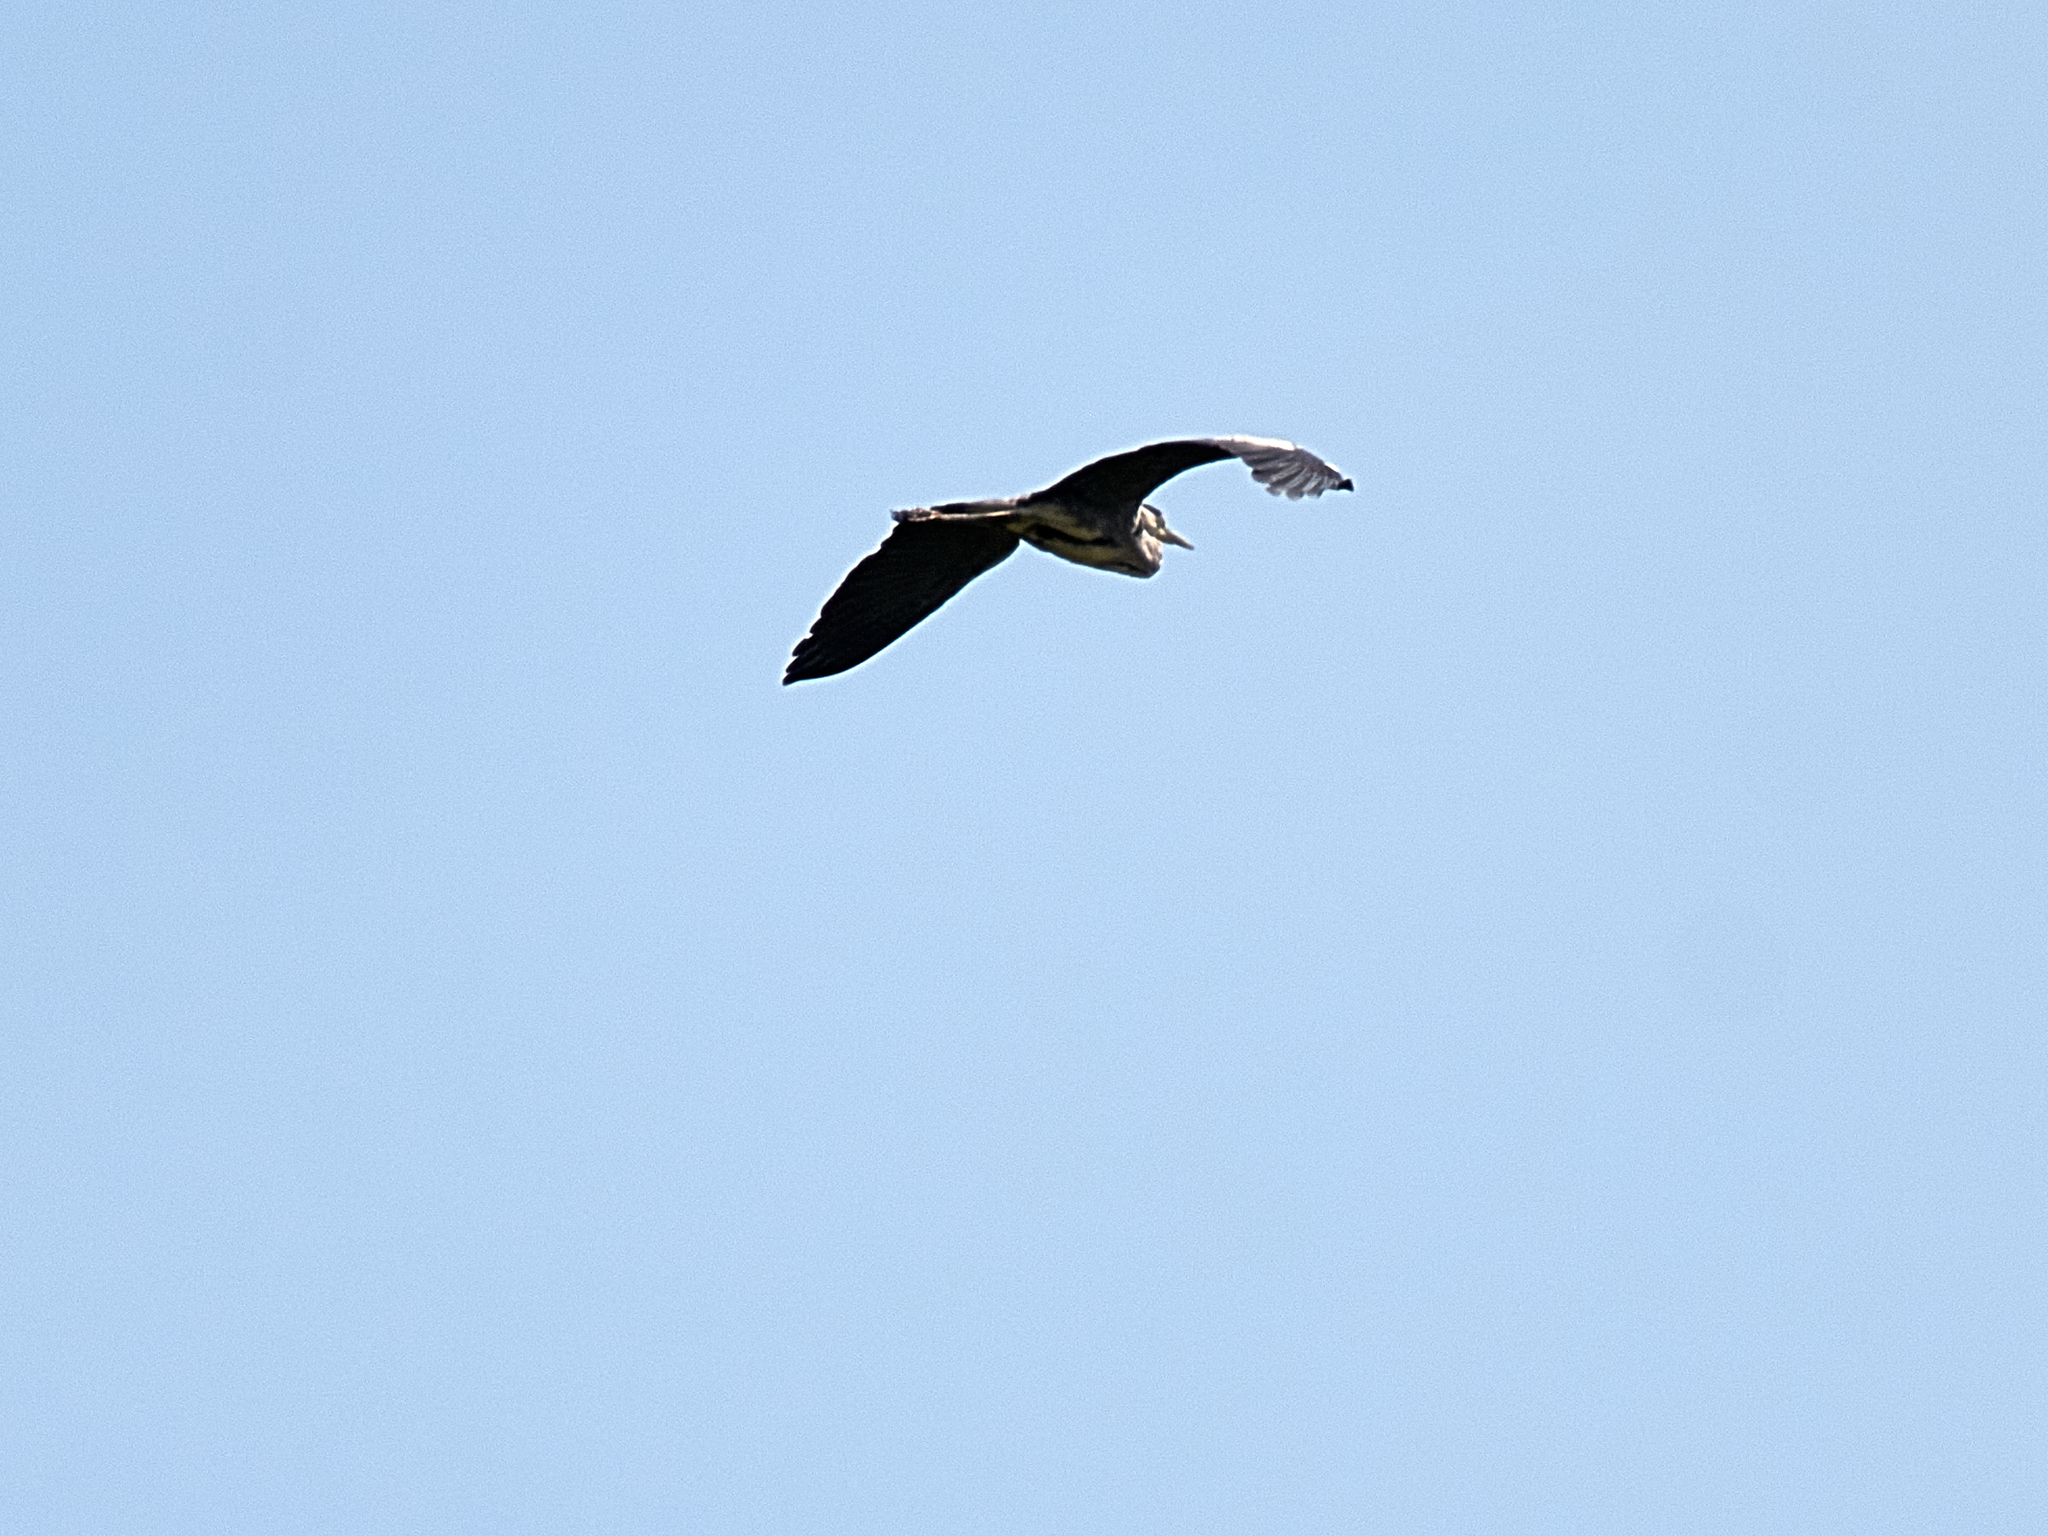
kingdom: Animalia
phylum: Chordata
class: Aves
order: Pelecaniformes
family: Ardeidae
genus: Ardea
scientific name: Ardea cinerea
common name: Grey heron
